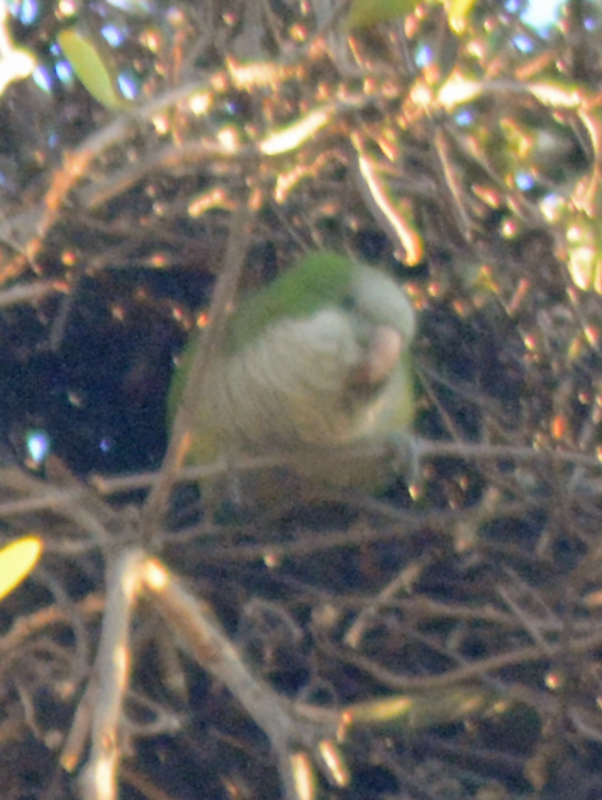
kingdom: Animalia
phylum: Chordata
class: Aves
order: Psittaciformes
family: Psittacidae
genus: Myiopsitta
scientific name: Myiopsitta monachus
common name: Monk parakeet
